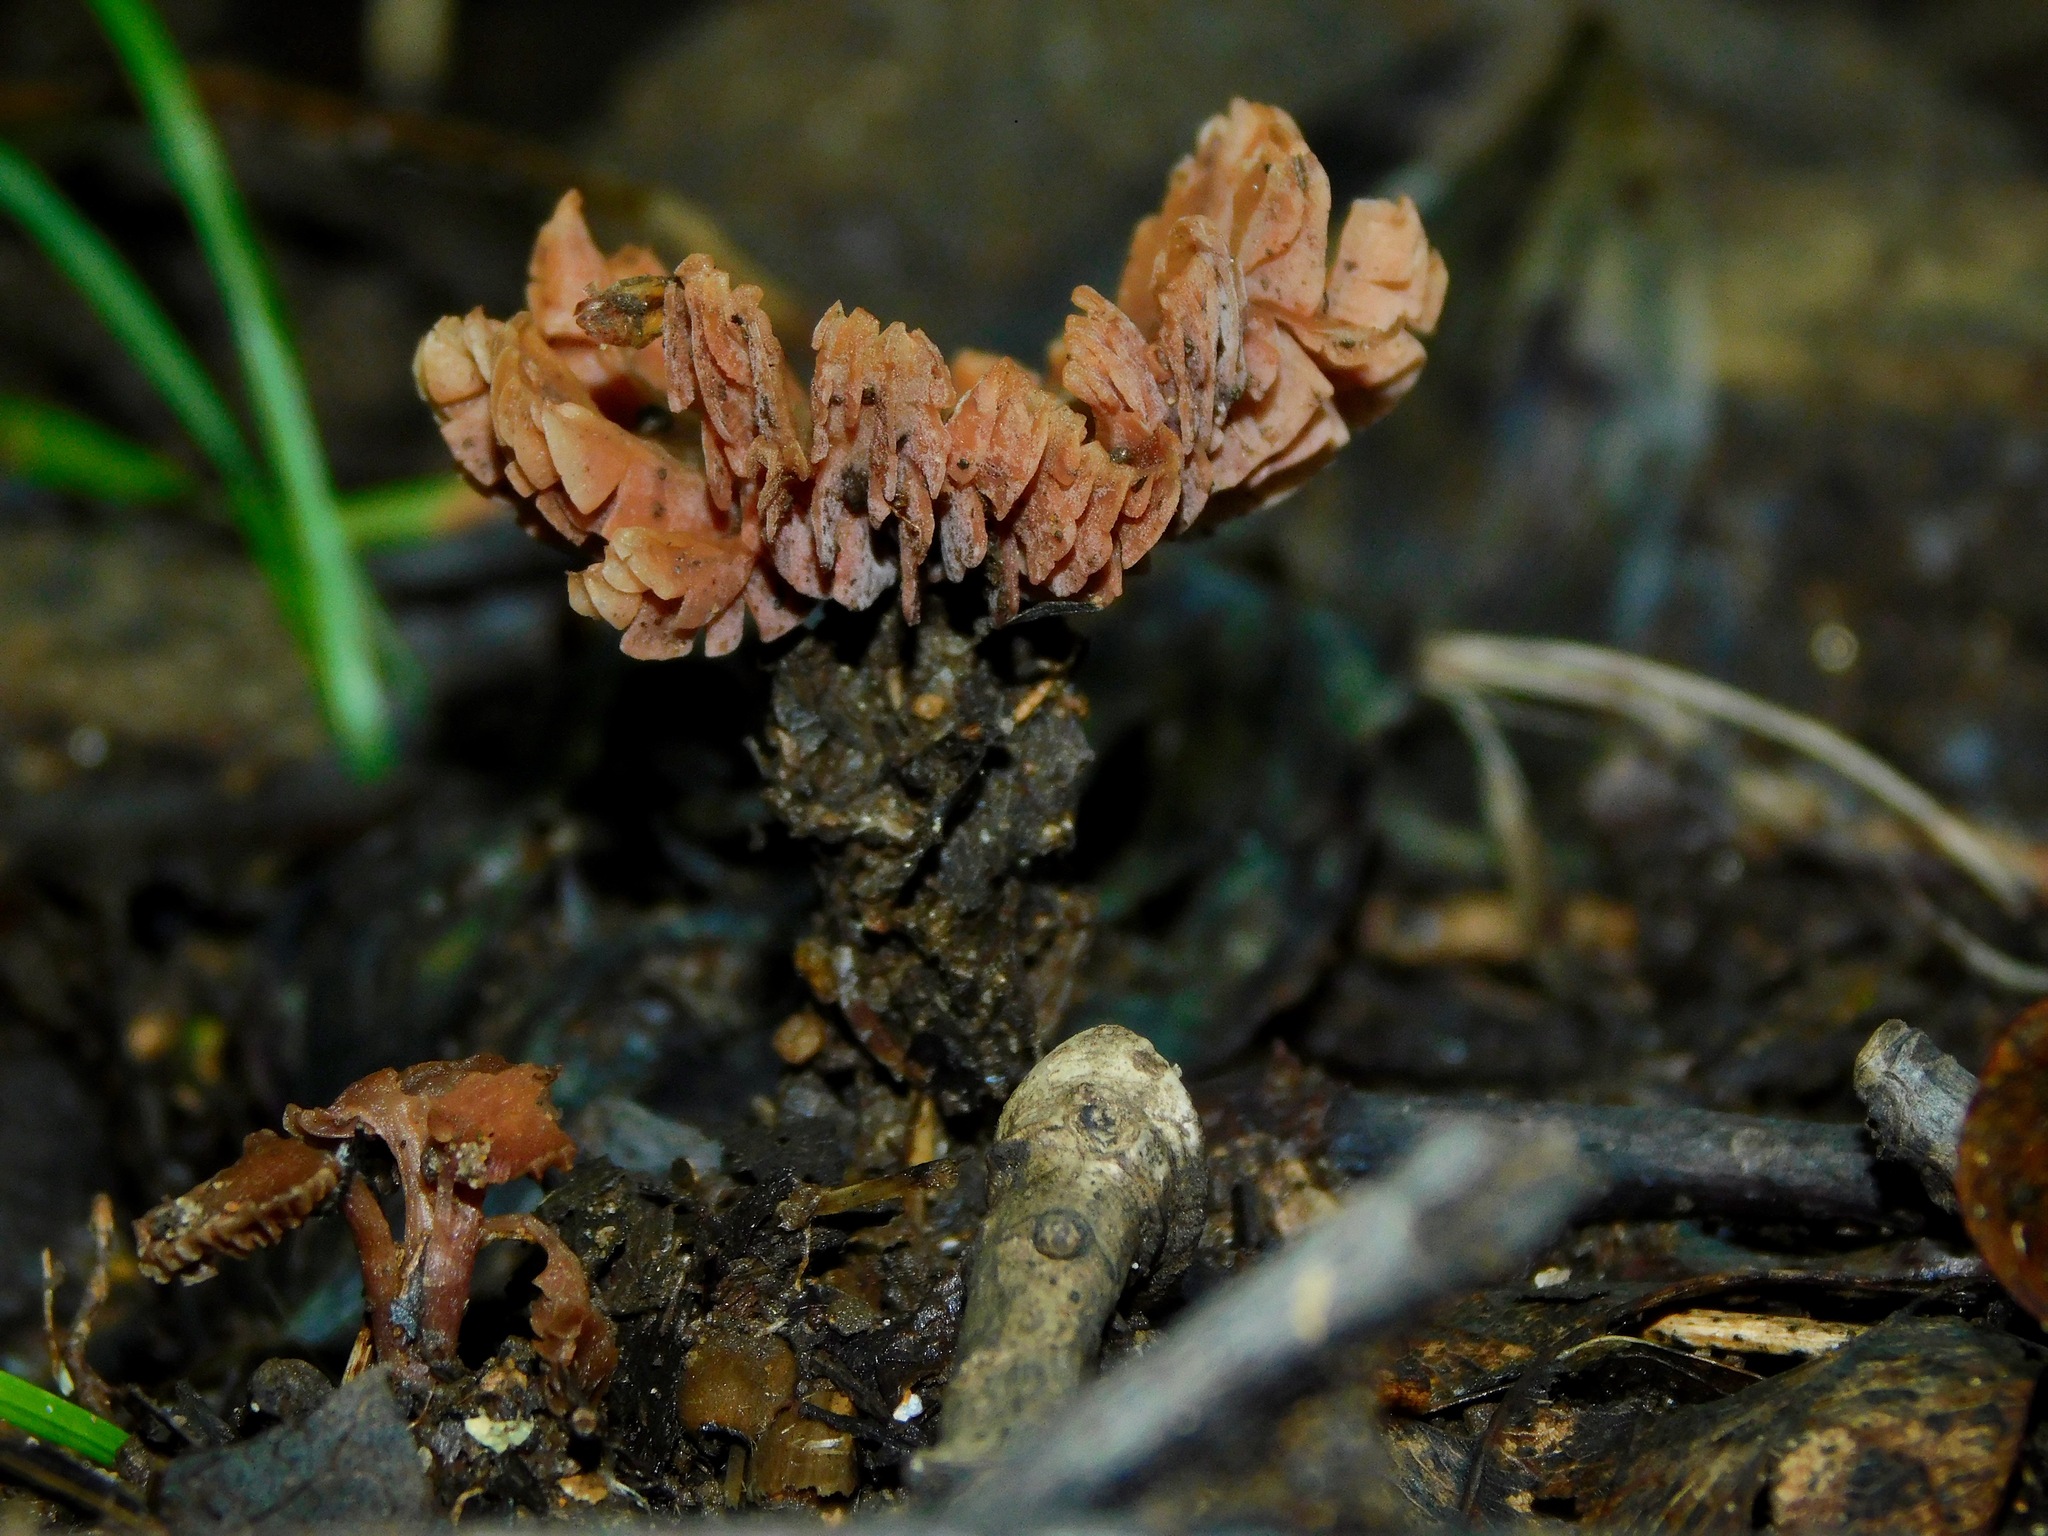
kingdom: Fungi
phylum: Basidiomycota
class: Agaricomycetes
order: Agaricales
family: Hydnangiaceae
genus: Laccaria
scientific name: Laccaria laccata
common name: Deceiver
